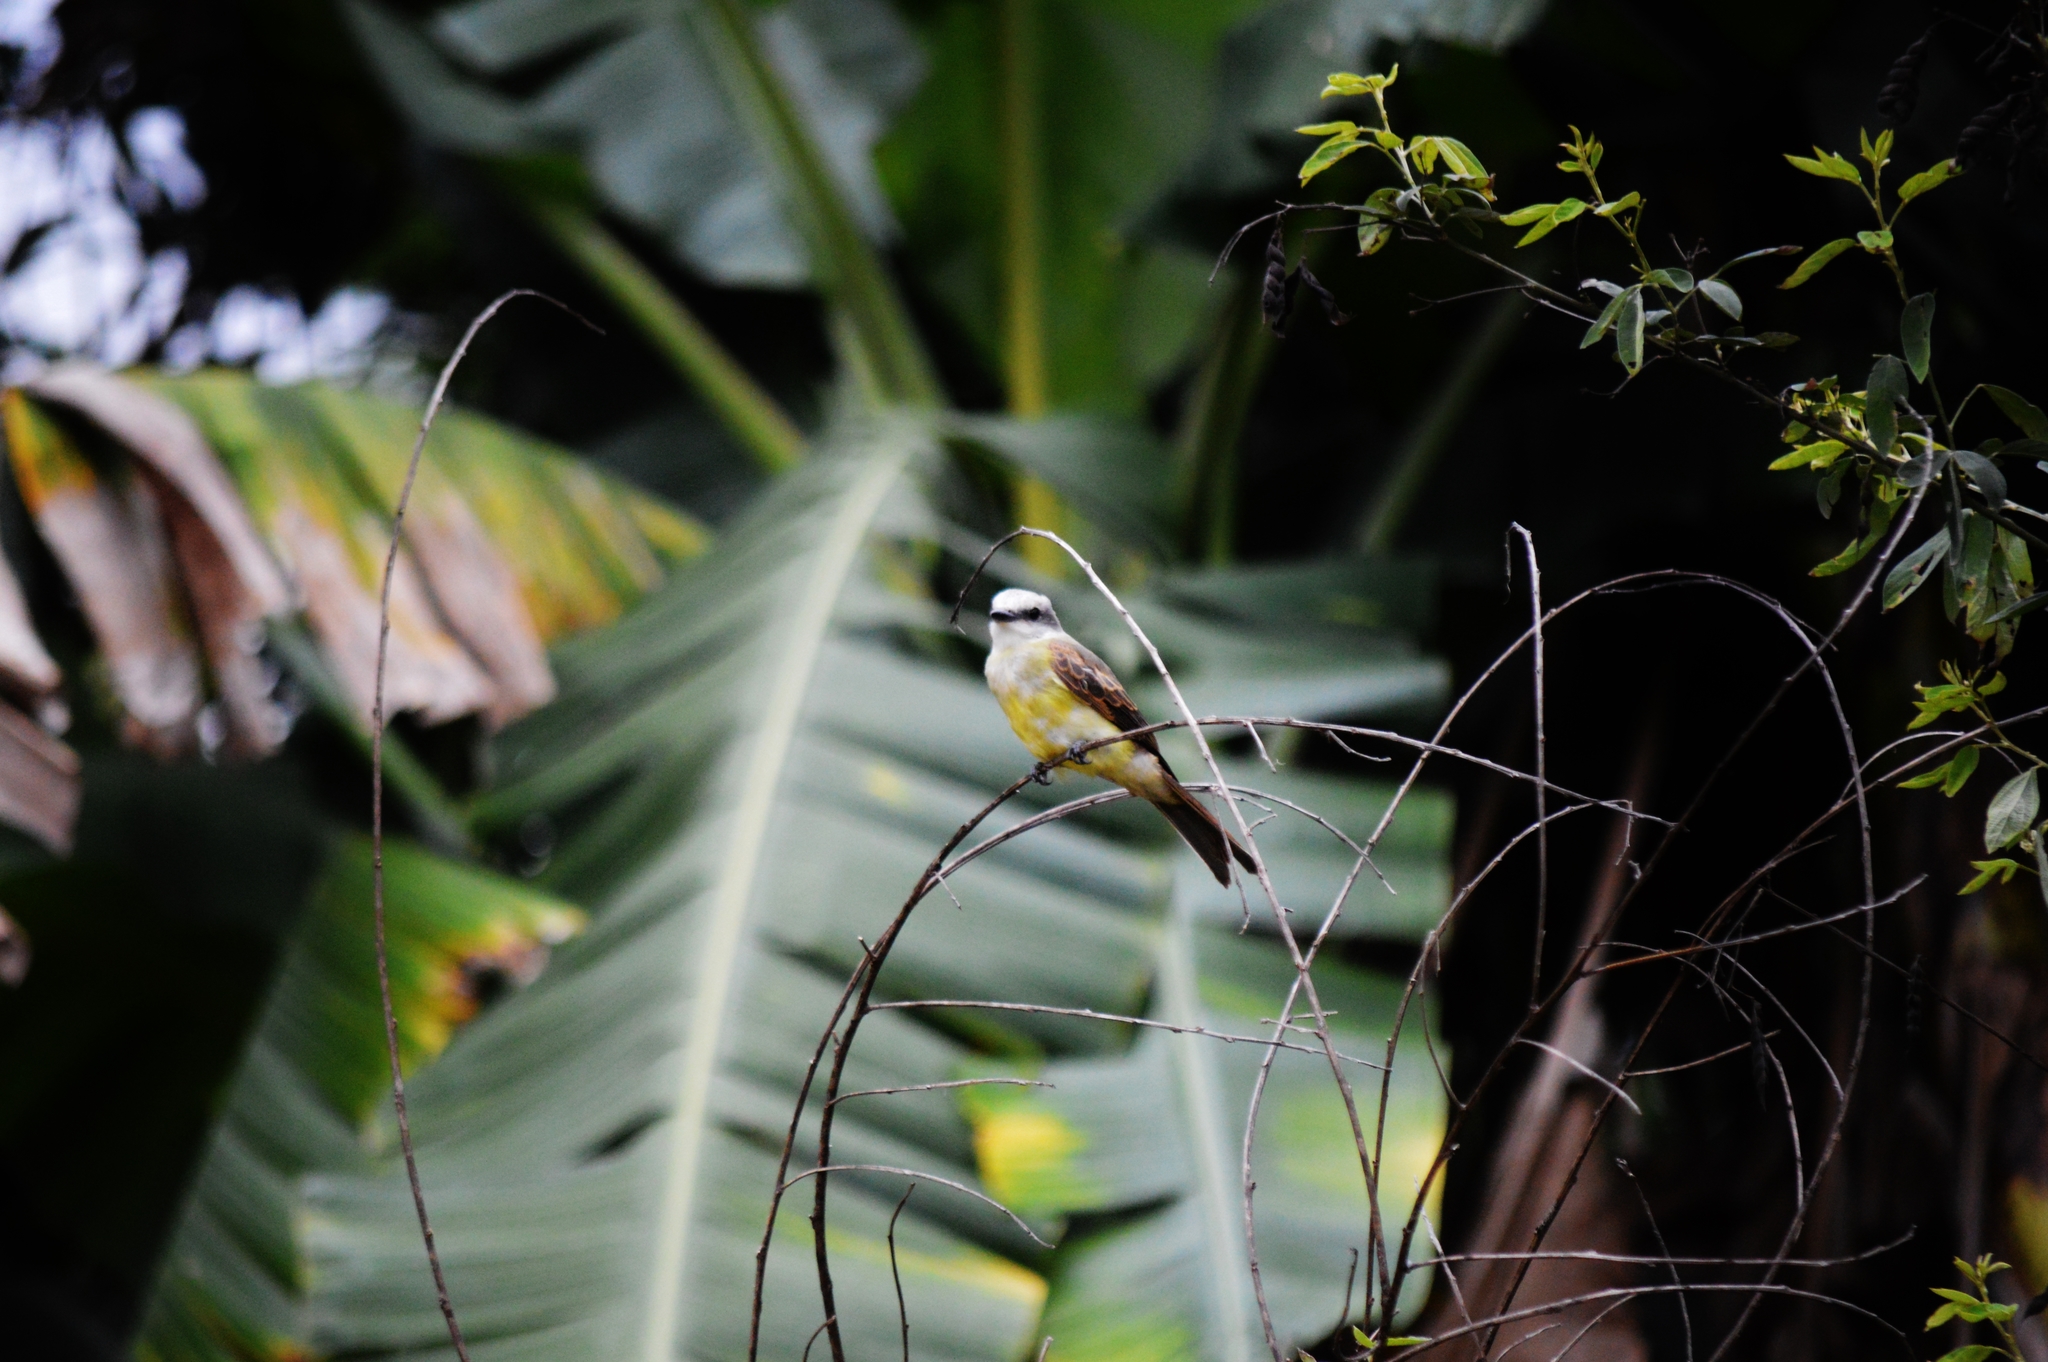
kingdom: Animalia
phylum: Chordata
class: Aves
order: Passeriformes
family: Tyrannidae
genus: Tyrannus
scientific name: Tyrannus melancholicus
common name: Tropical kingbird
